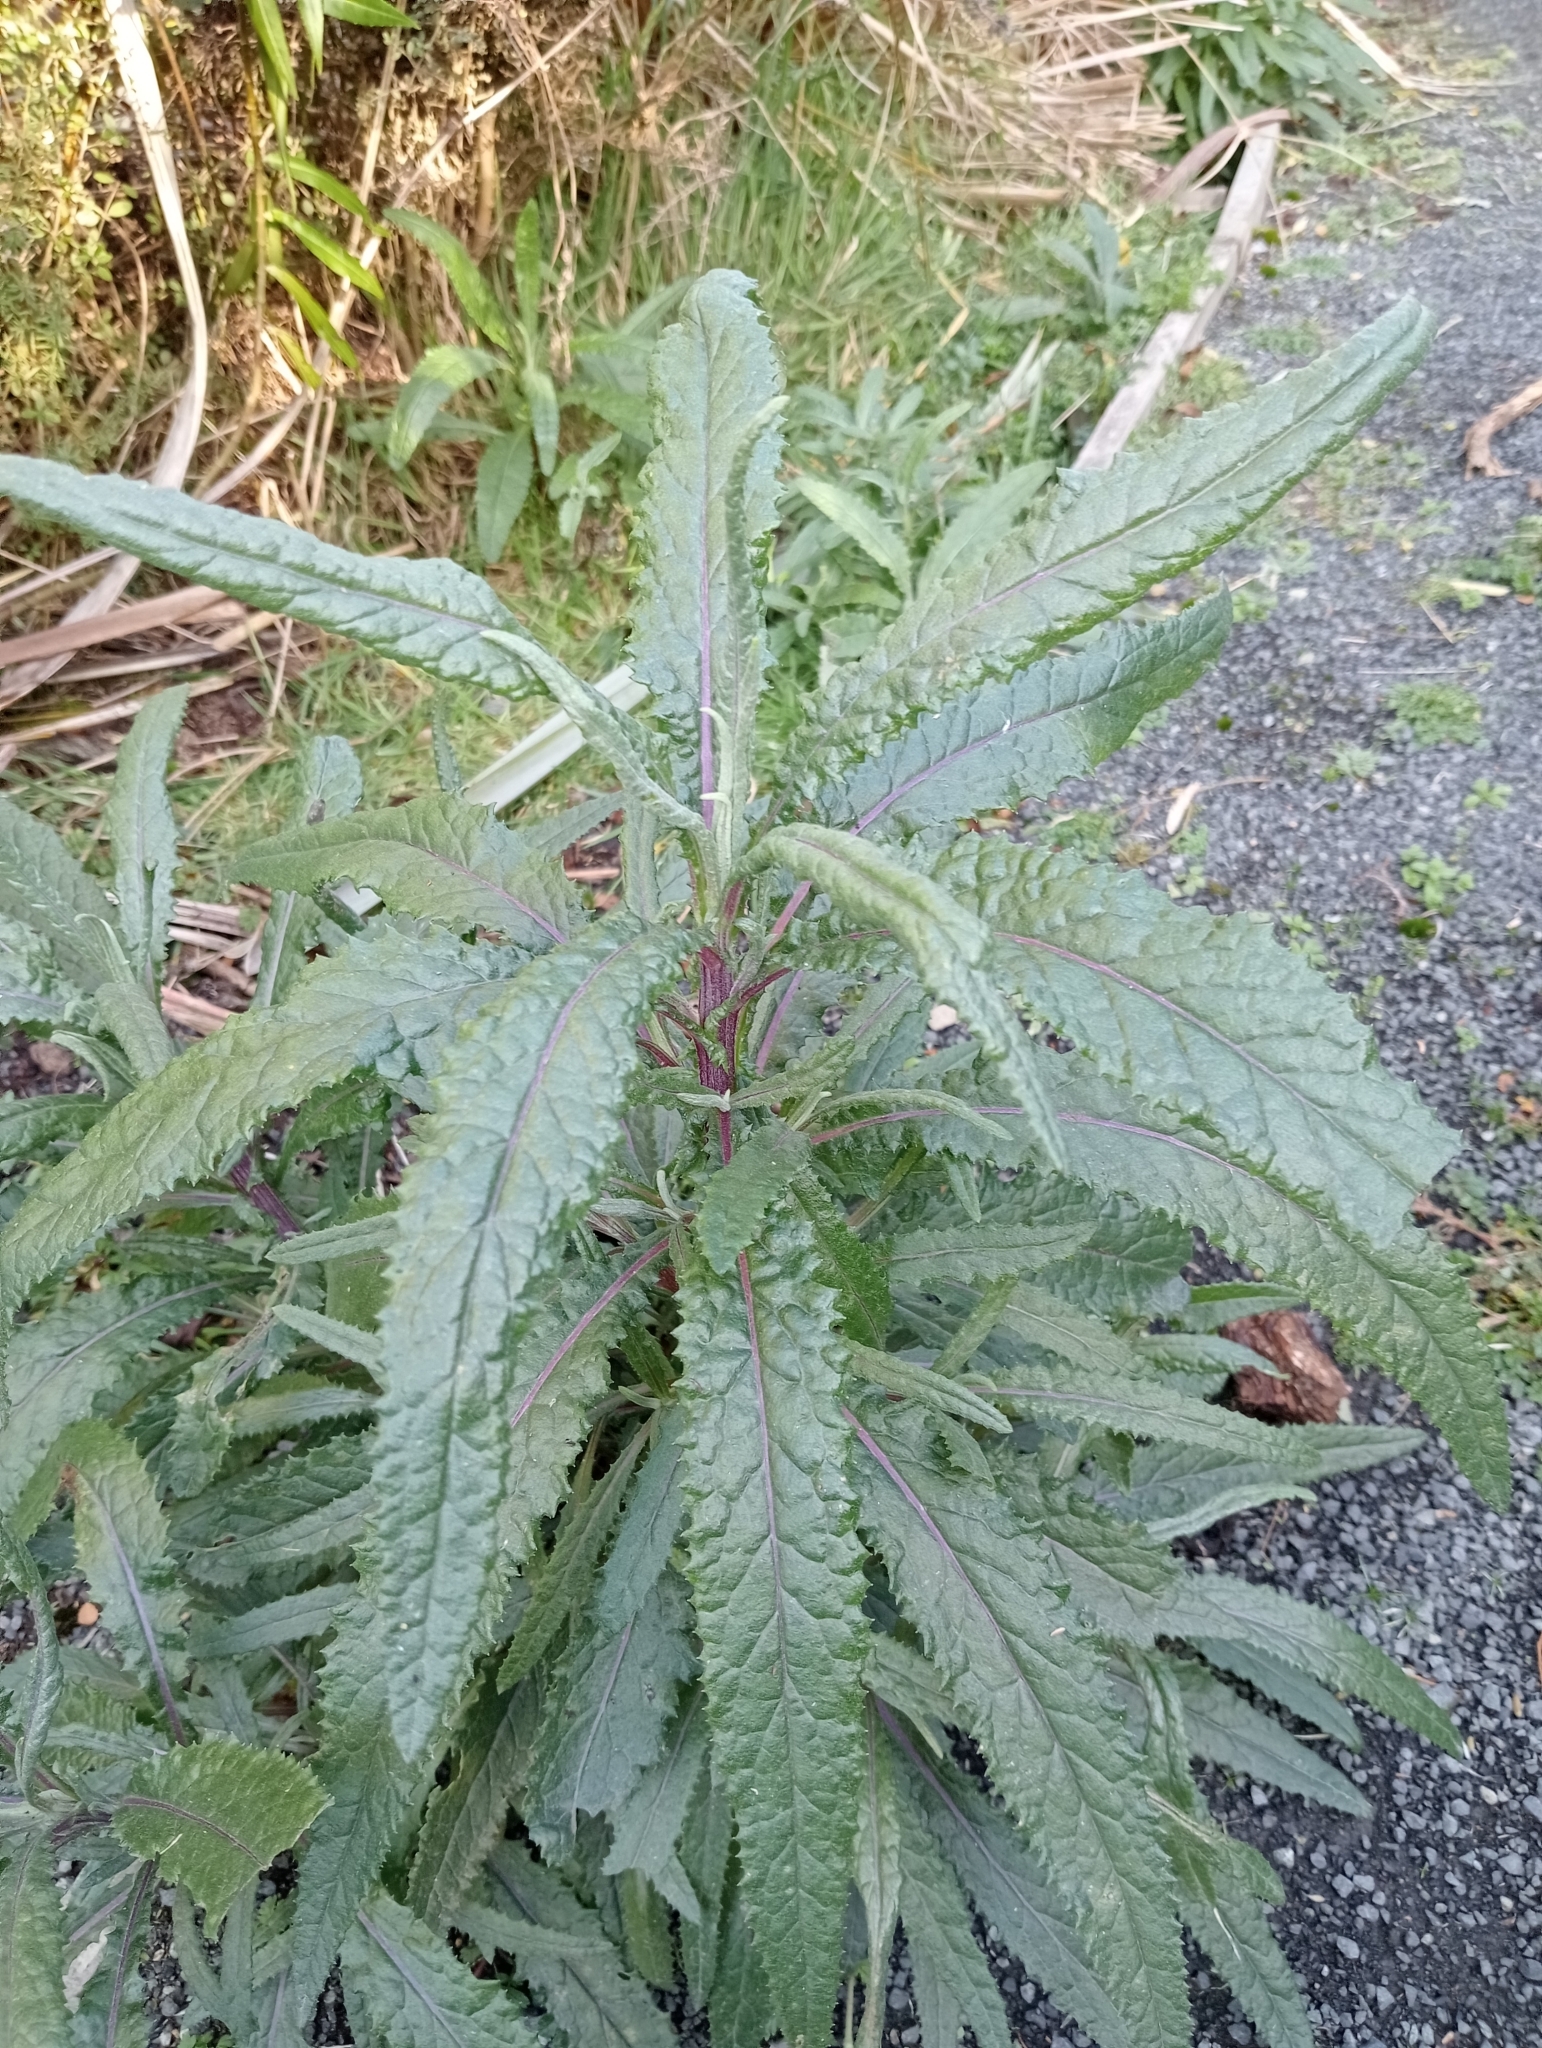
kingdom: Plantae
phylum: Tracheophyta
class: Magnoliopsida
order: Asterales
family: Asteraceae
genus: Senecio
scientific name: Senecio minimus
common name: Toothed fireweed
